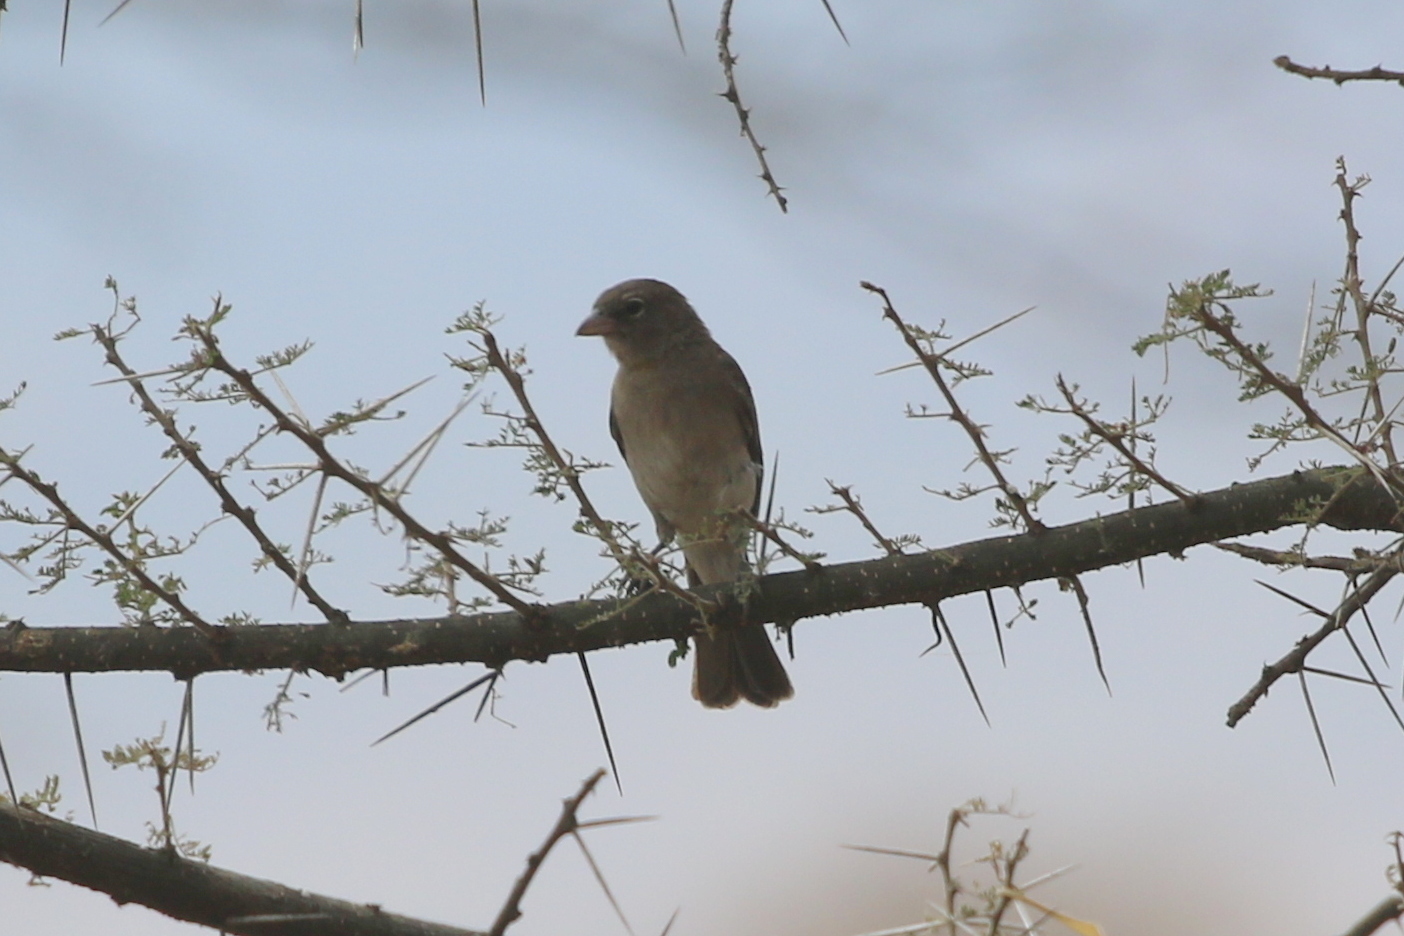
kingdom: Animalia
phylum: Chordata
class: Aves
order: Passeriformes
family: Passeridae
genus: Gymnoris
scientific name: Gymnoris pyrgita
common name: Yellow-spotted petronia
